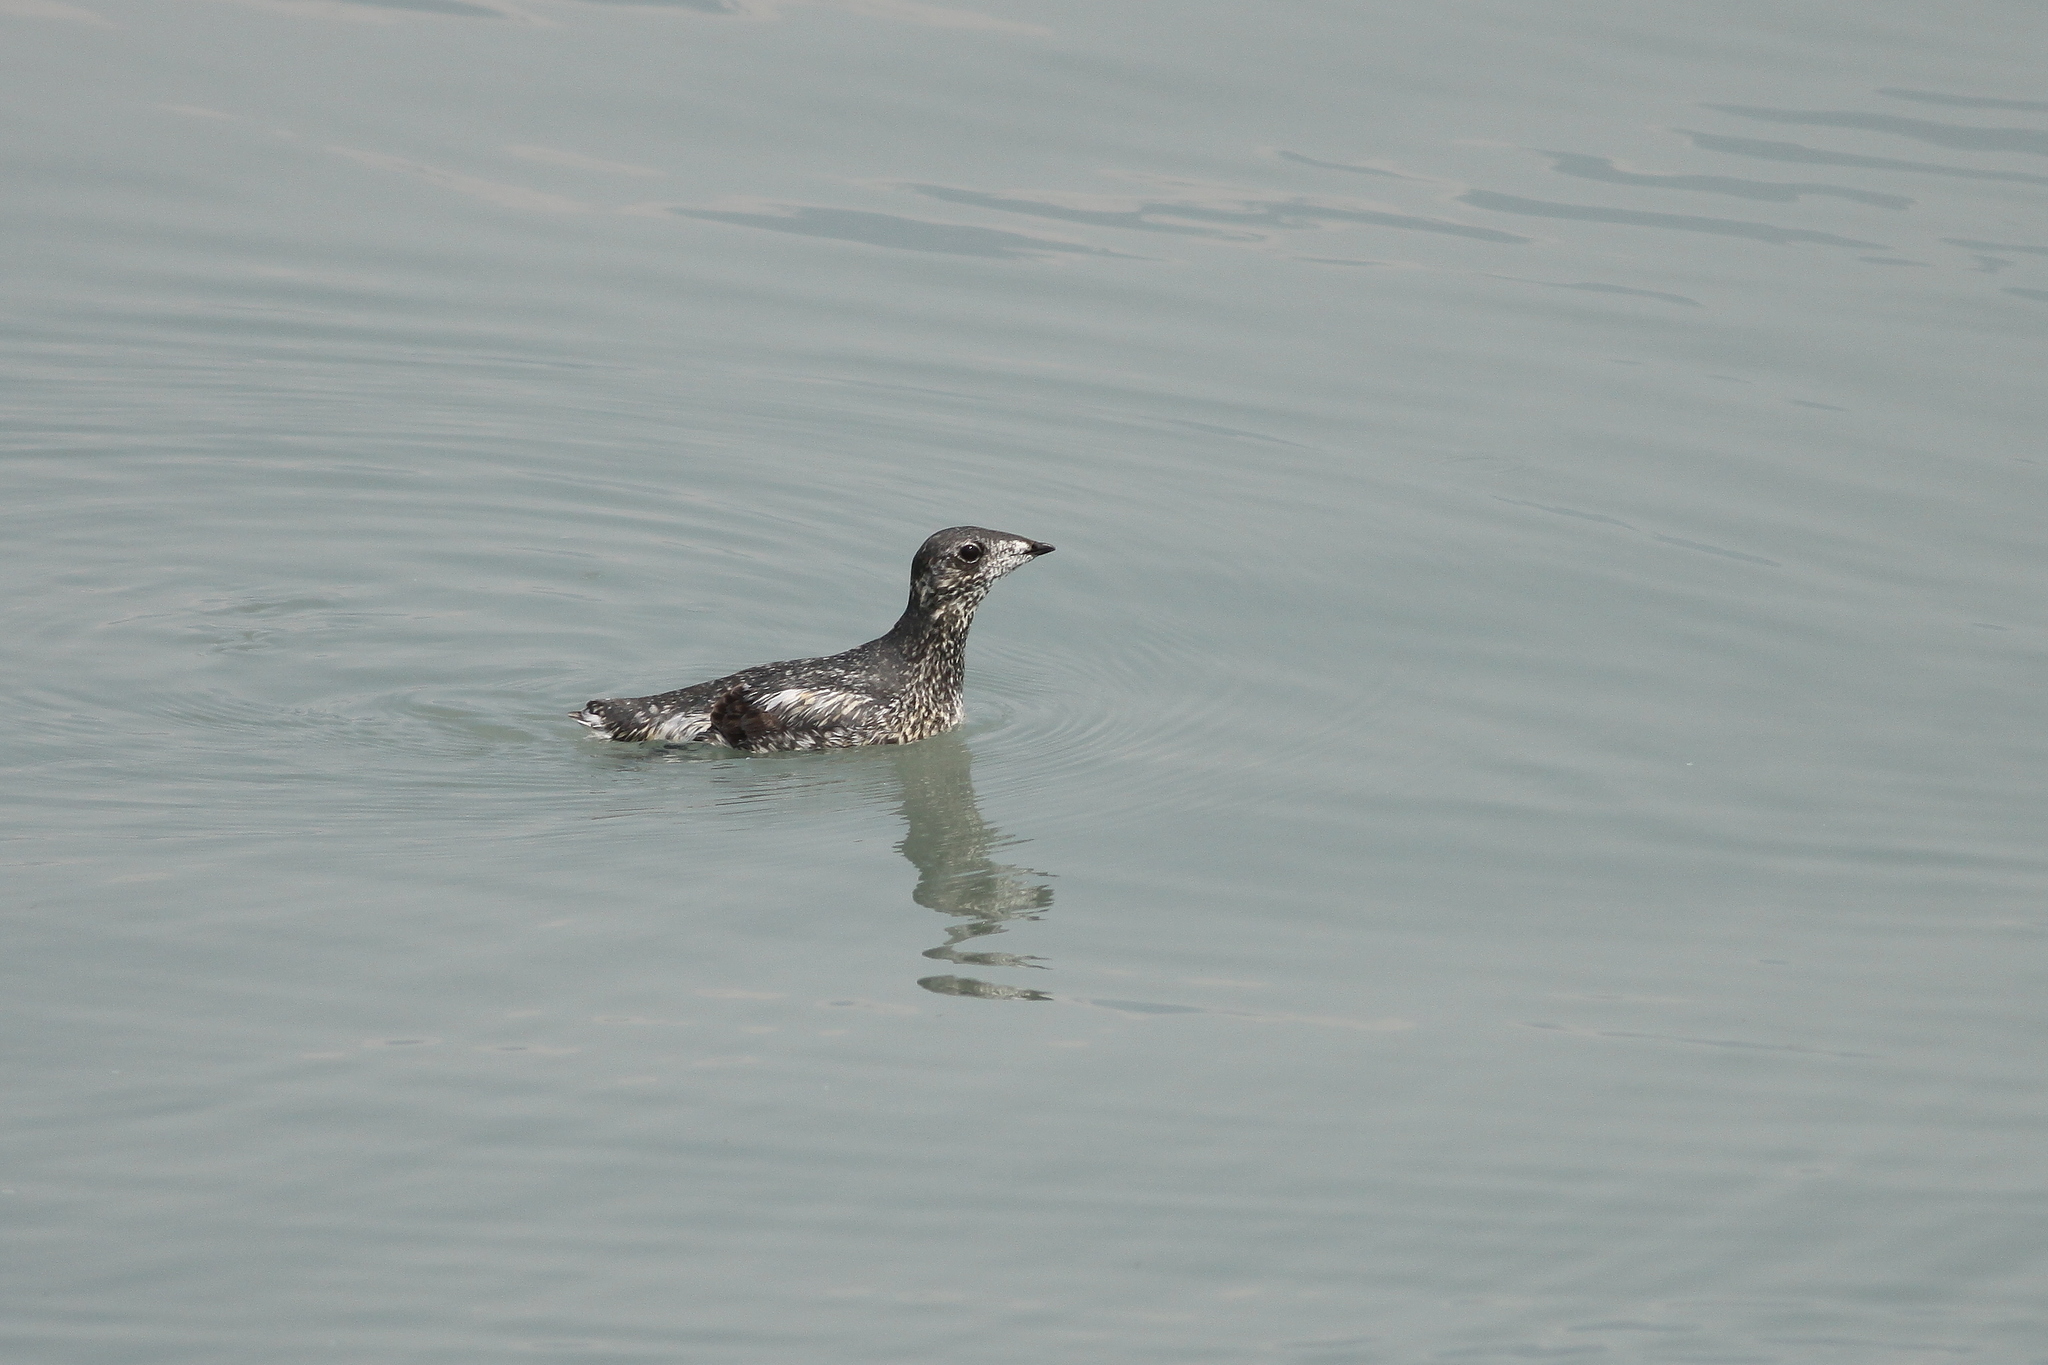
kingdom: Animalia
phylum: Chordata
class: Aves
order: Charadriiformes
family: Alcidae
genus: Brachyramphus
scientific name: Brachyramphus brevirostris
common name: Kittlitz's murrelet
